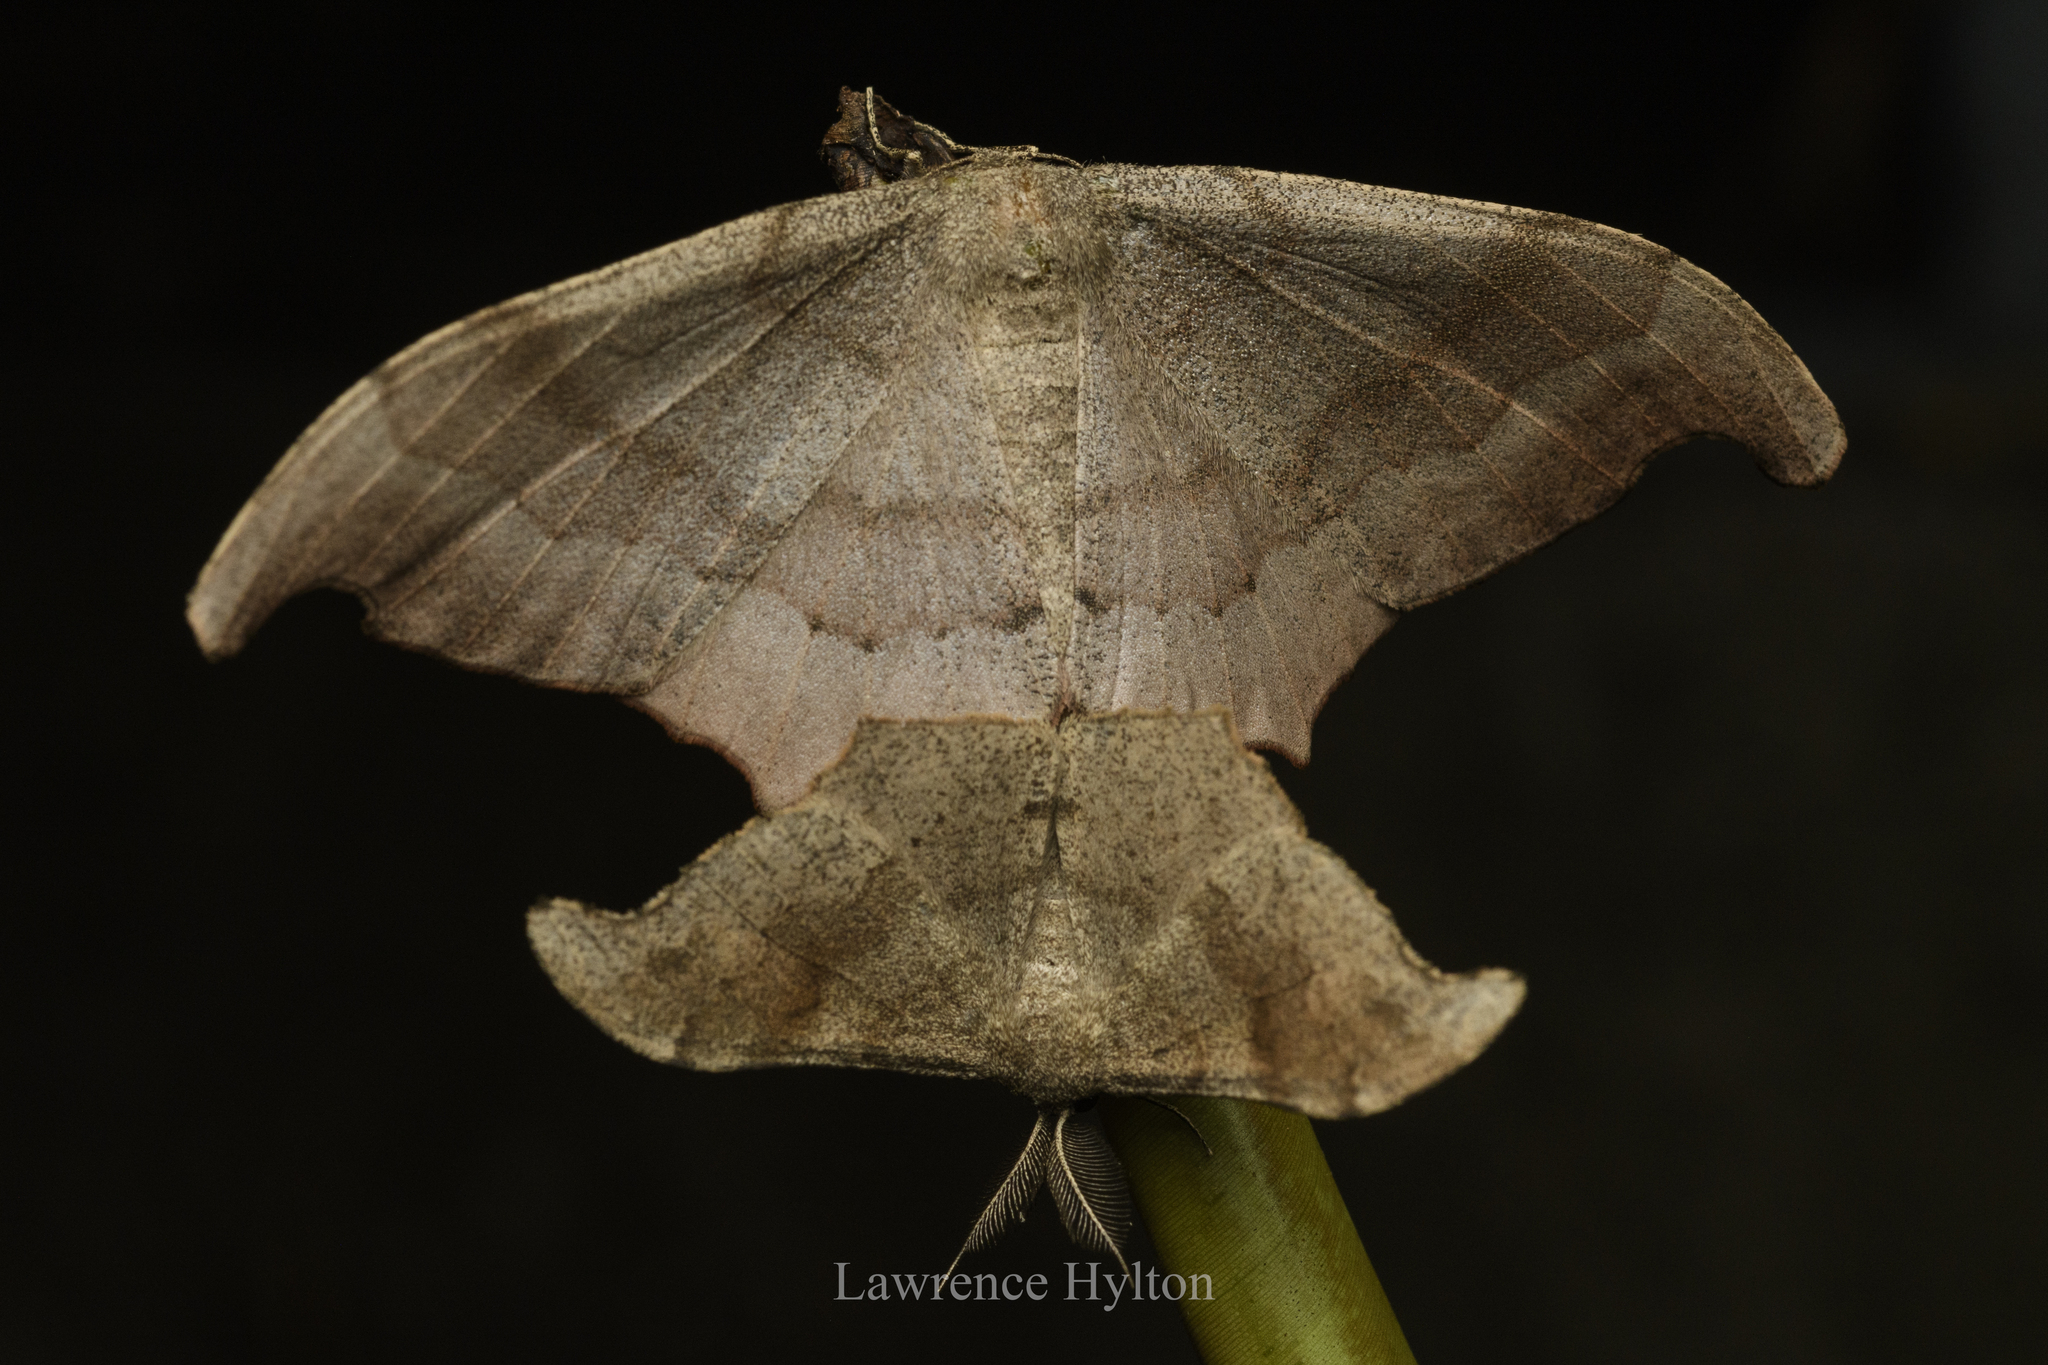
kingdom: Animalia
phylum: Arthropoda
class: Insecta
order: Lepidoptera
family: Geometridae
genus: Hyposidra
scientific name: Hyposidra talaca
